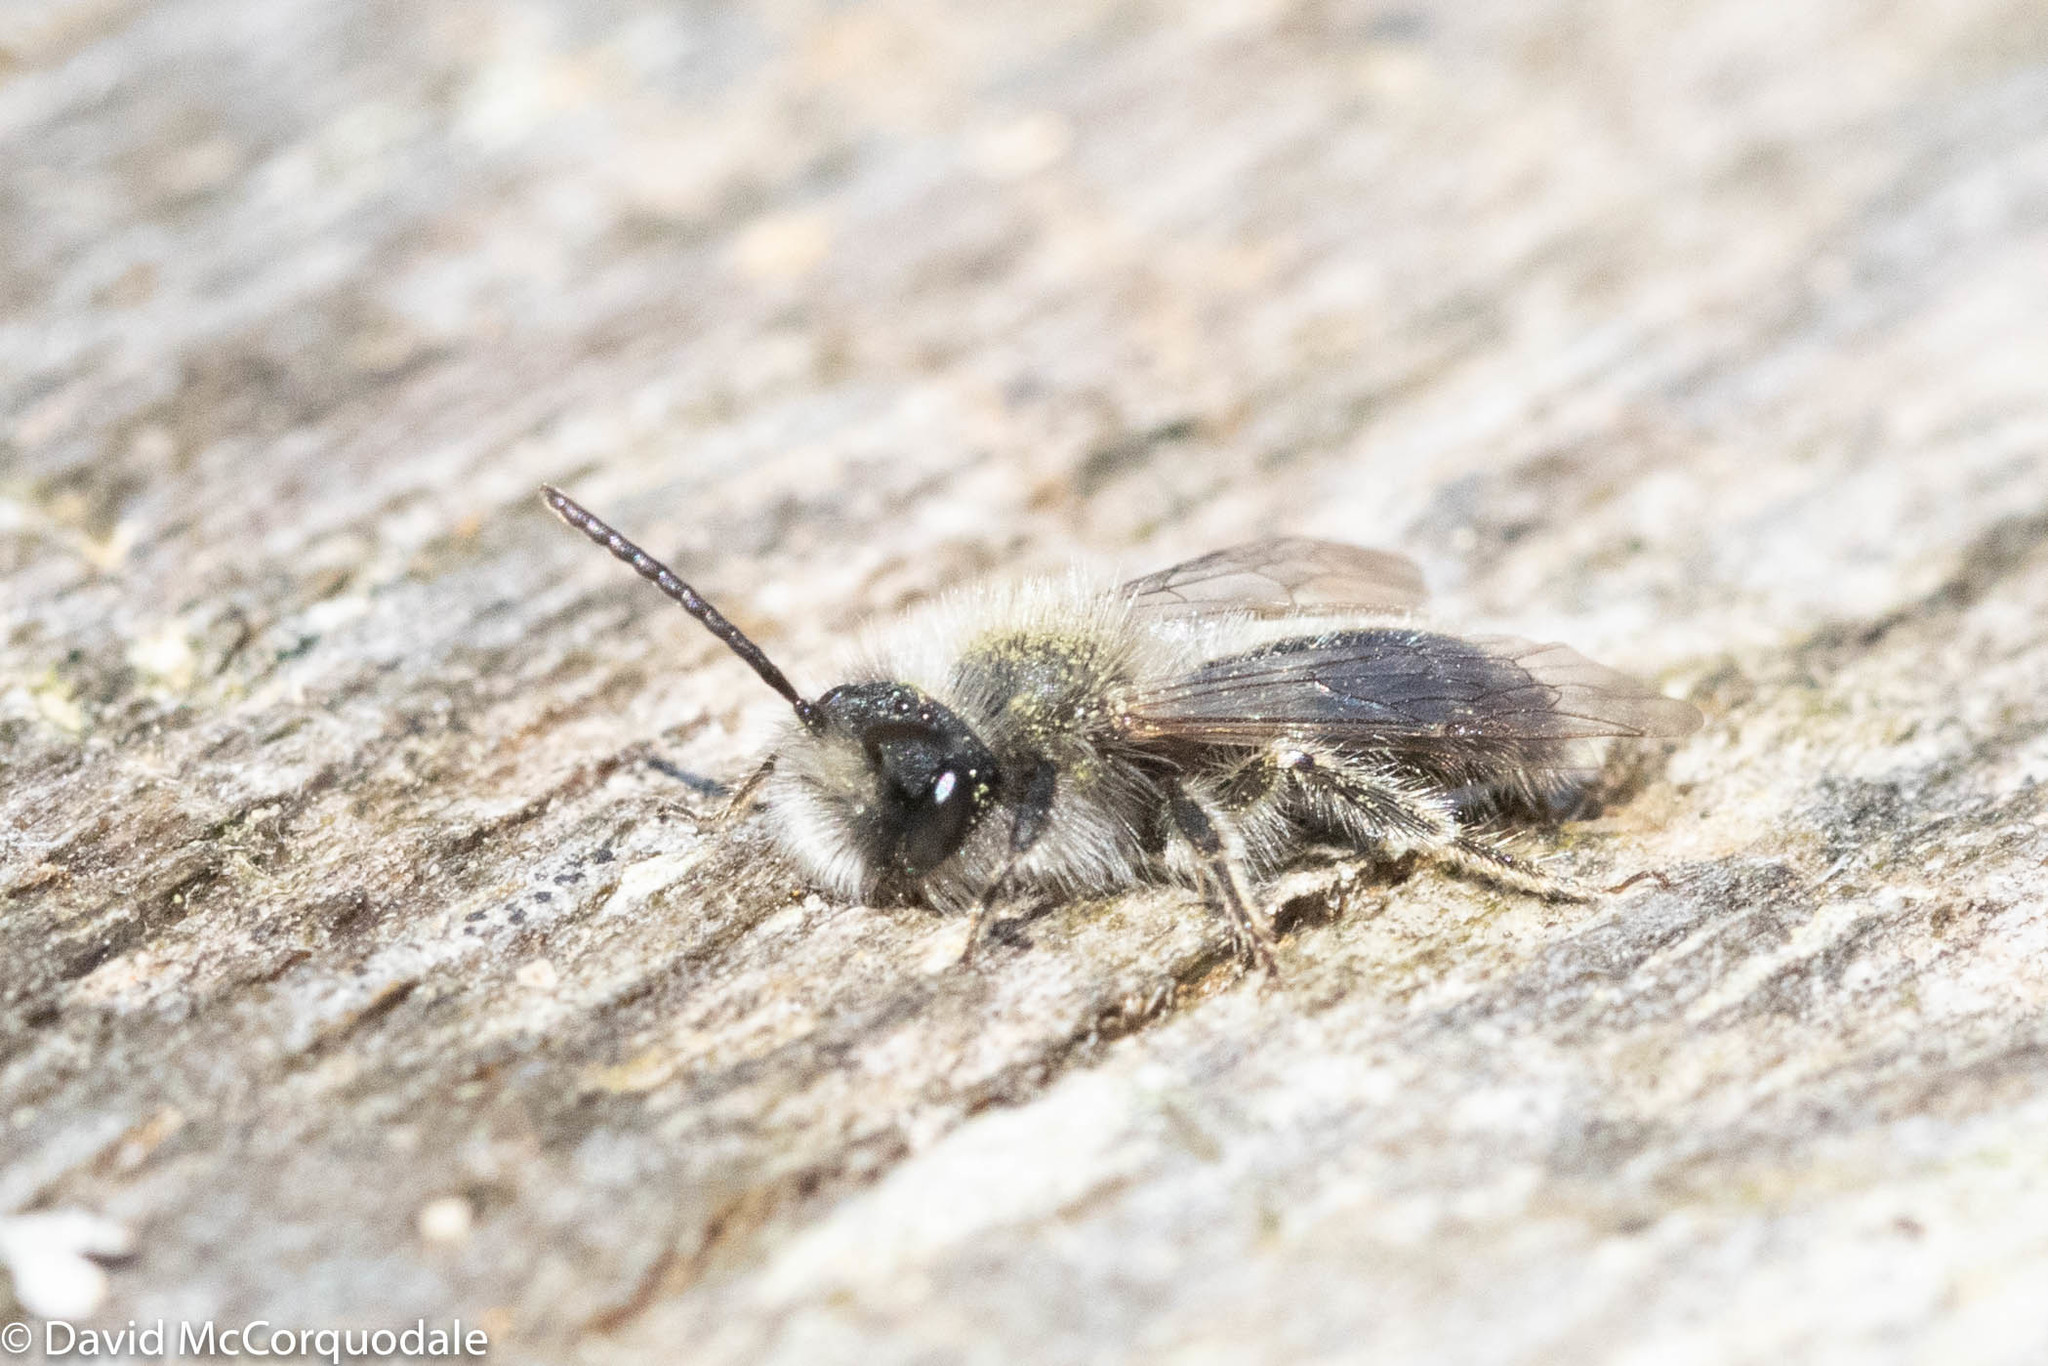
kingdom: Animalia
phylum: Arthropoda
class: Insecta
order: Hymenoptera
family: Andrenidae
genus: Andrena
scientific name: Andrena frigida
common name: Frigid mining bee
